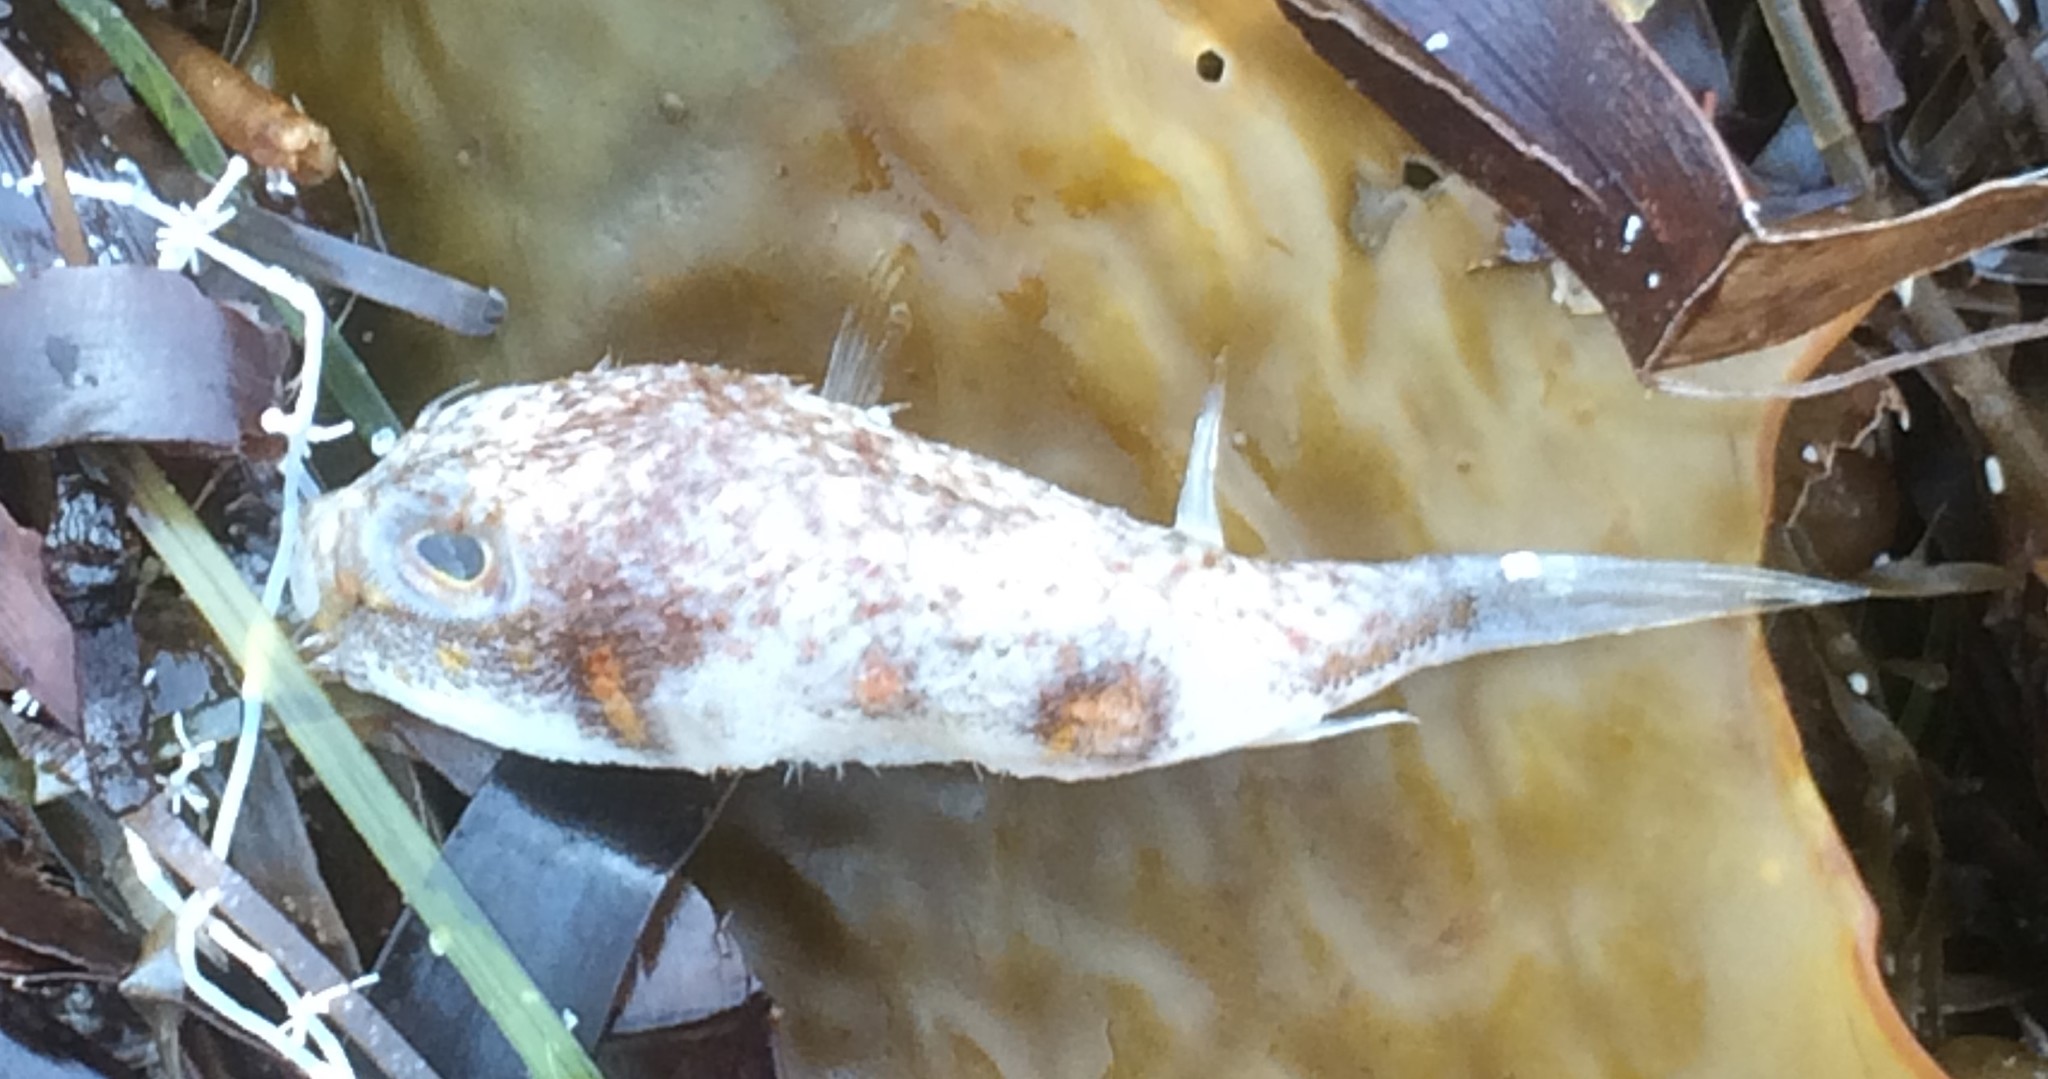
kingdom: Animalia
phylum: Chordata
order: Tetraodontiformes
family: Tetraodontidae
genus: Polyspina
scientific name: Polyspina piosae
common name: Orange-barred pufferfish
